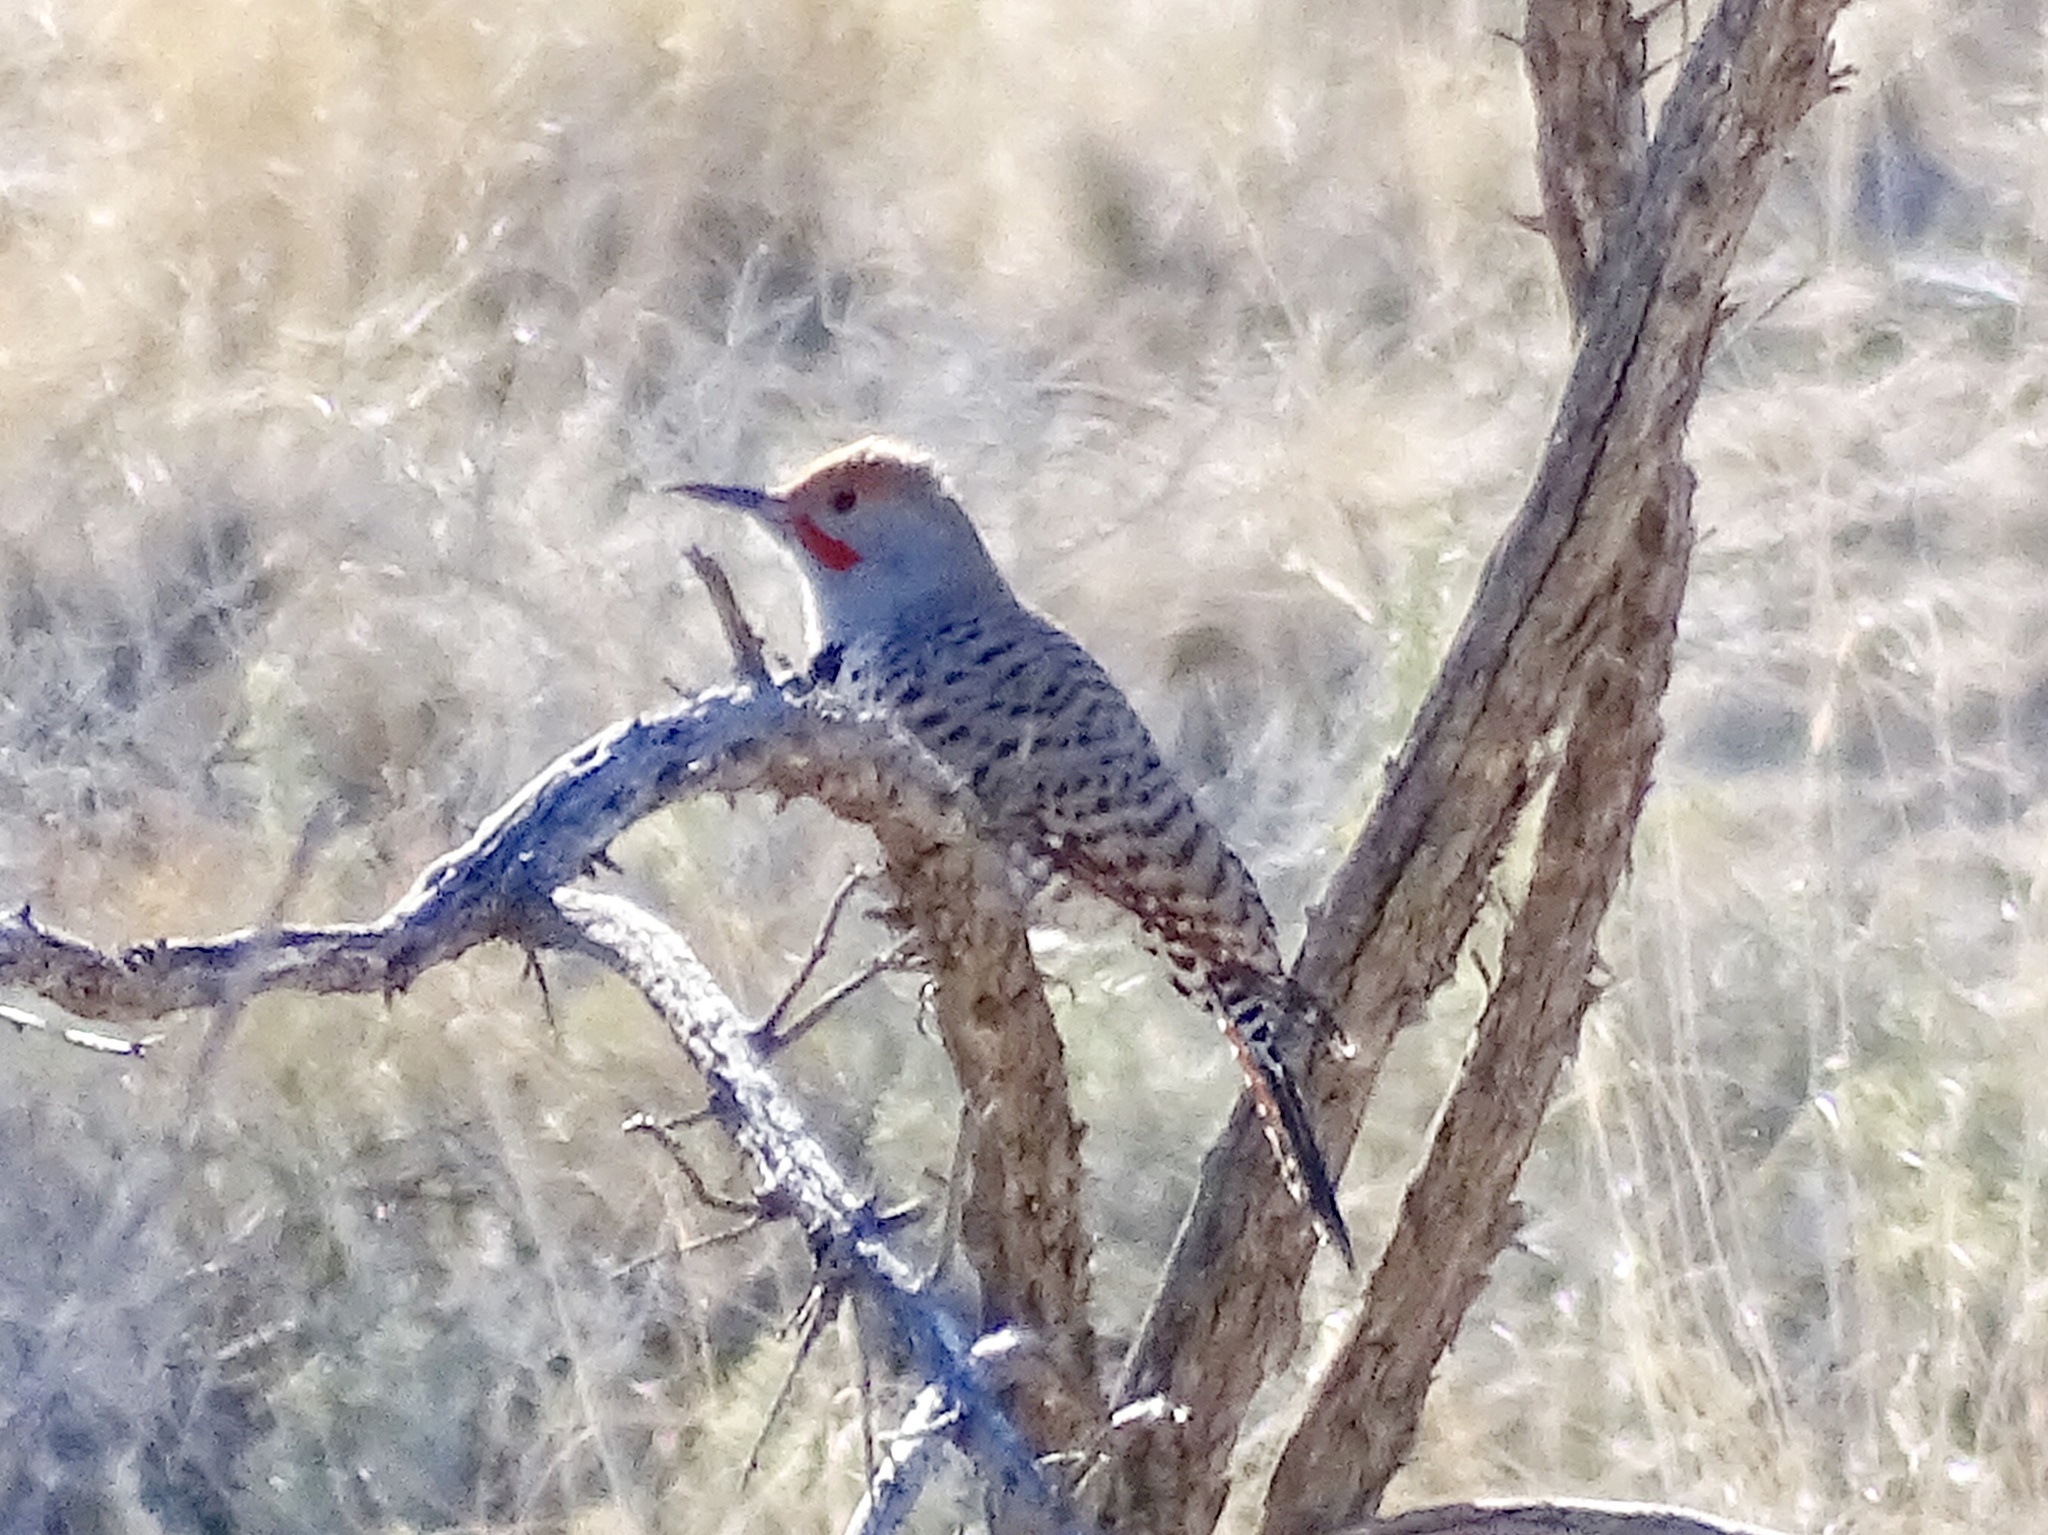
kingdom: Animalia
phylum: Chordata
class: Aves
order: Piciformes
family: Picidae
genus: Colaptes
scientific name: Colaptes auratus
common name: Northern flicker
